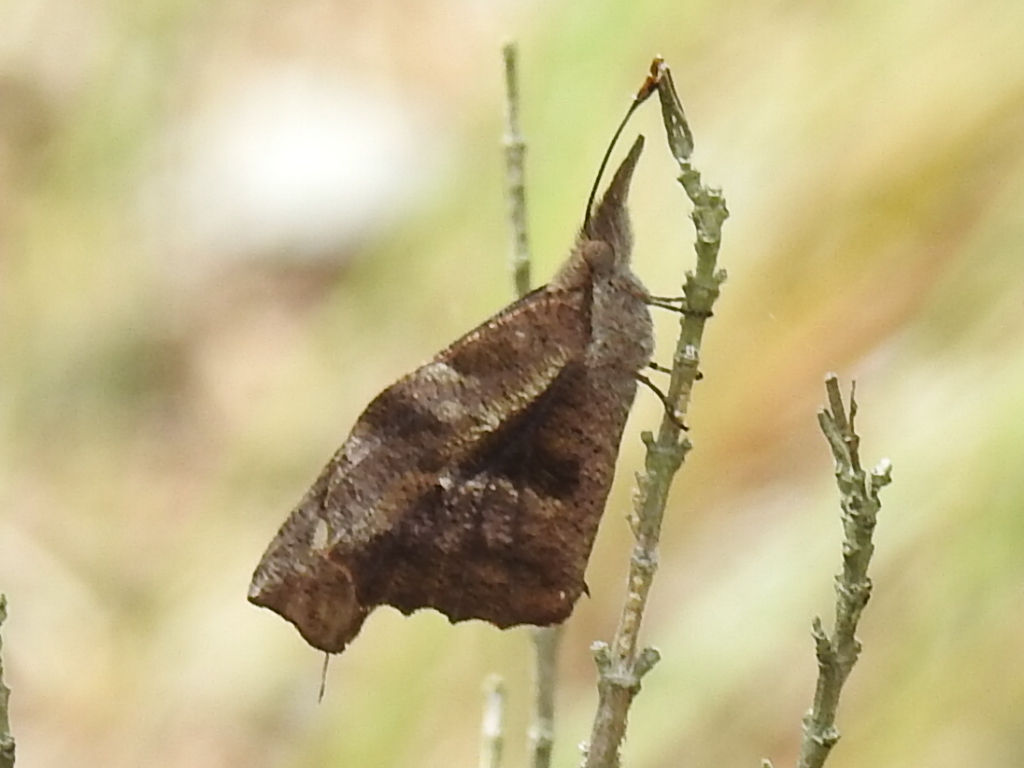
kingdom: Animalia
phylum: Arthropoda
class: Insecta
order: Lepidoptera
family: Nymphalidae
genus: Libytheana
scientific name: Libytheana carinenta
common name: American snout
